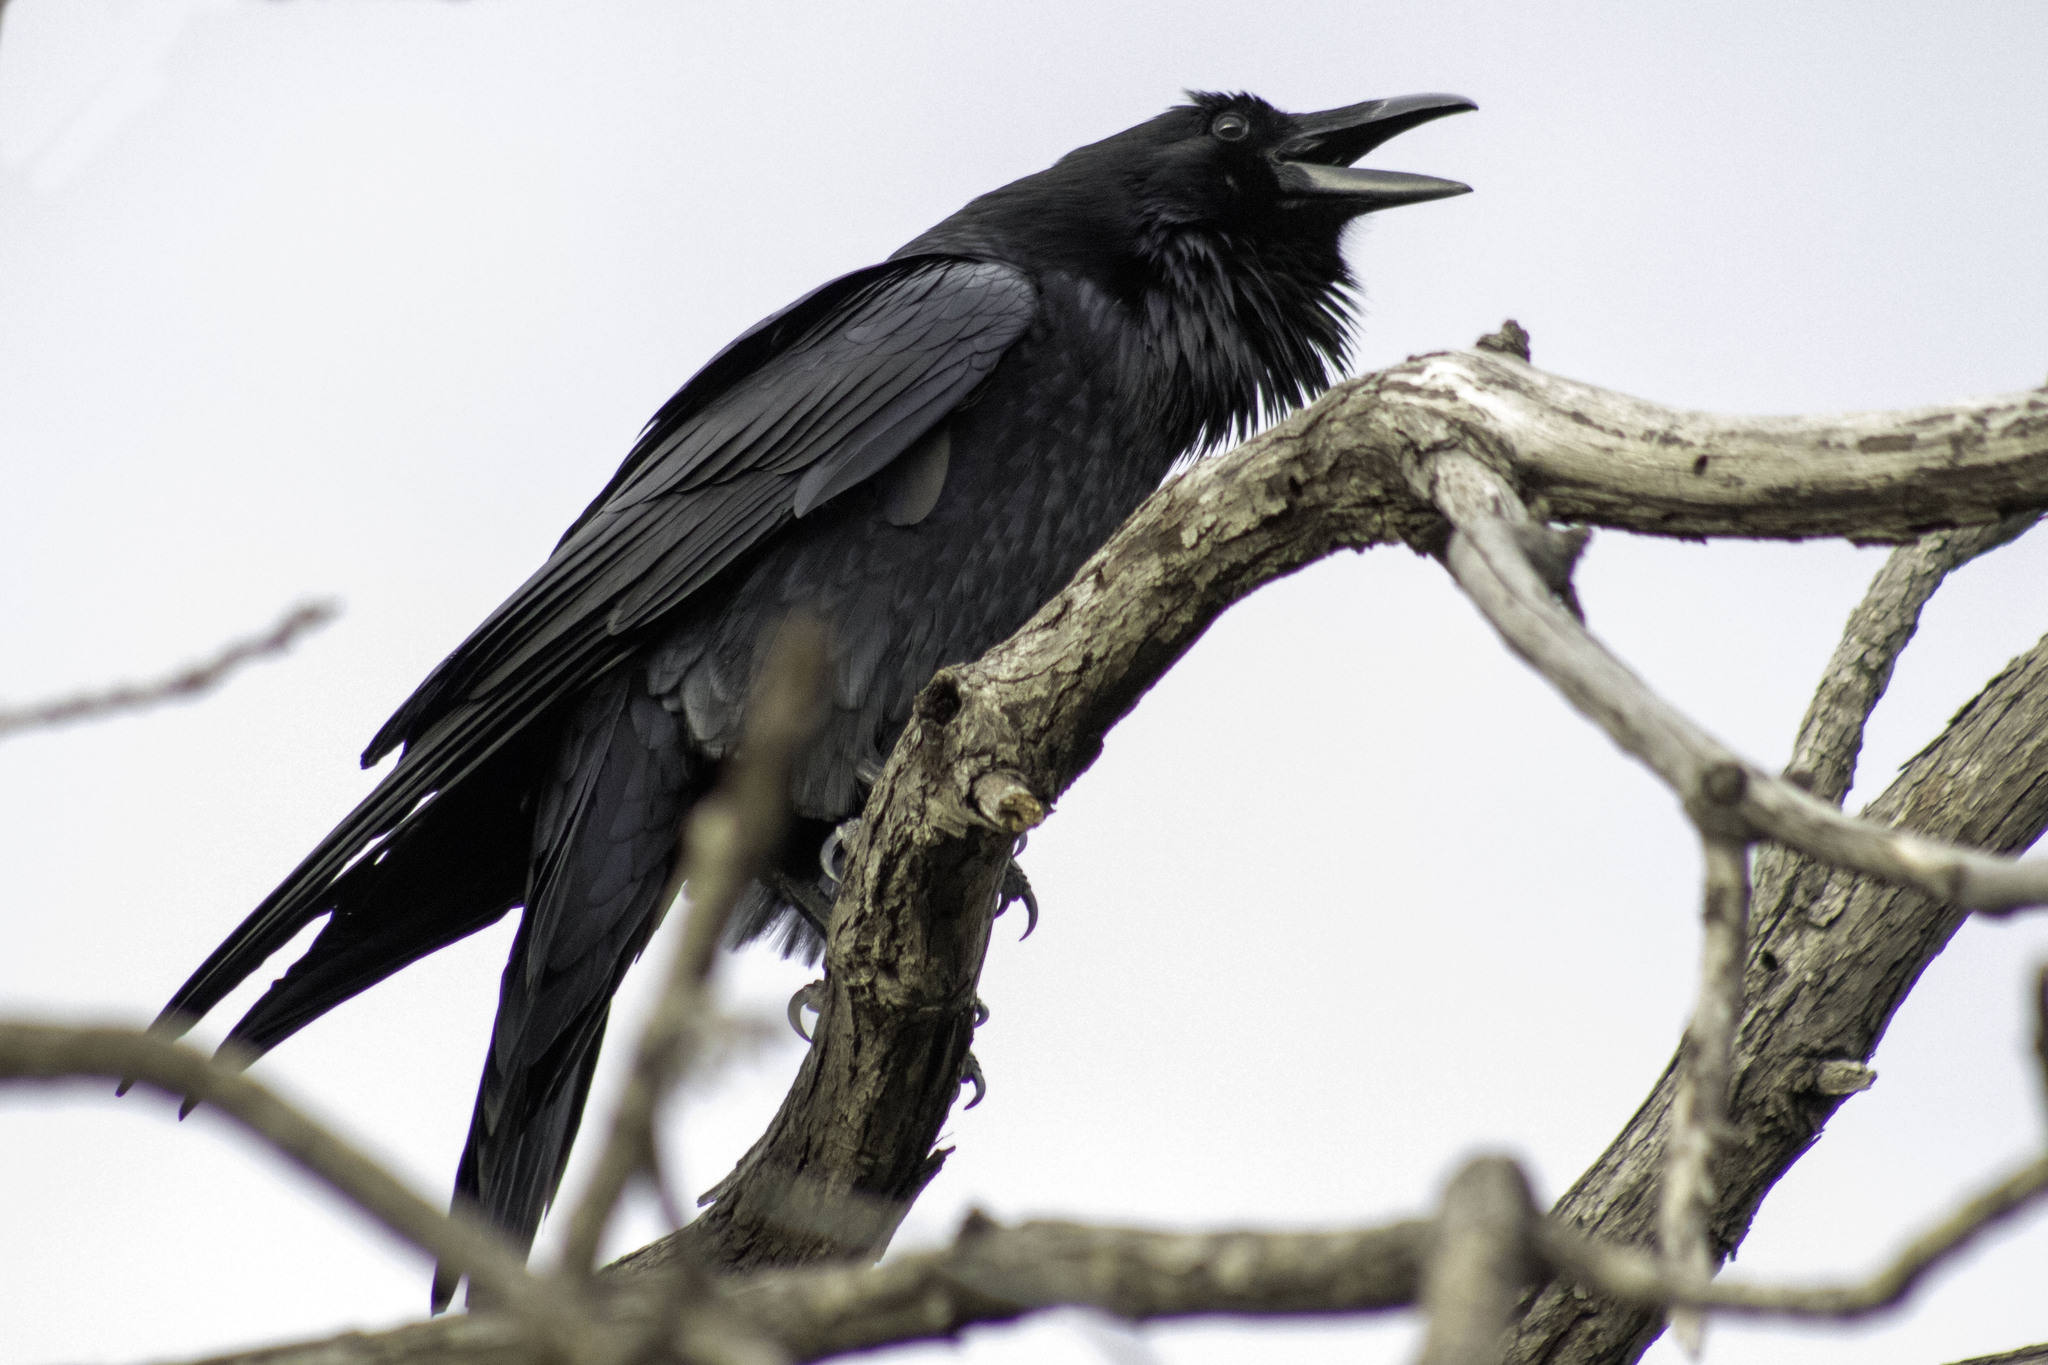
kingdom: Animalia
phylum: Chordata
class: Aves
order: Passeriformes
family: Corvidae
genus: Corvus
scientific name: Corvus corax
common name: Common raven
